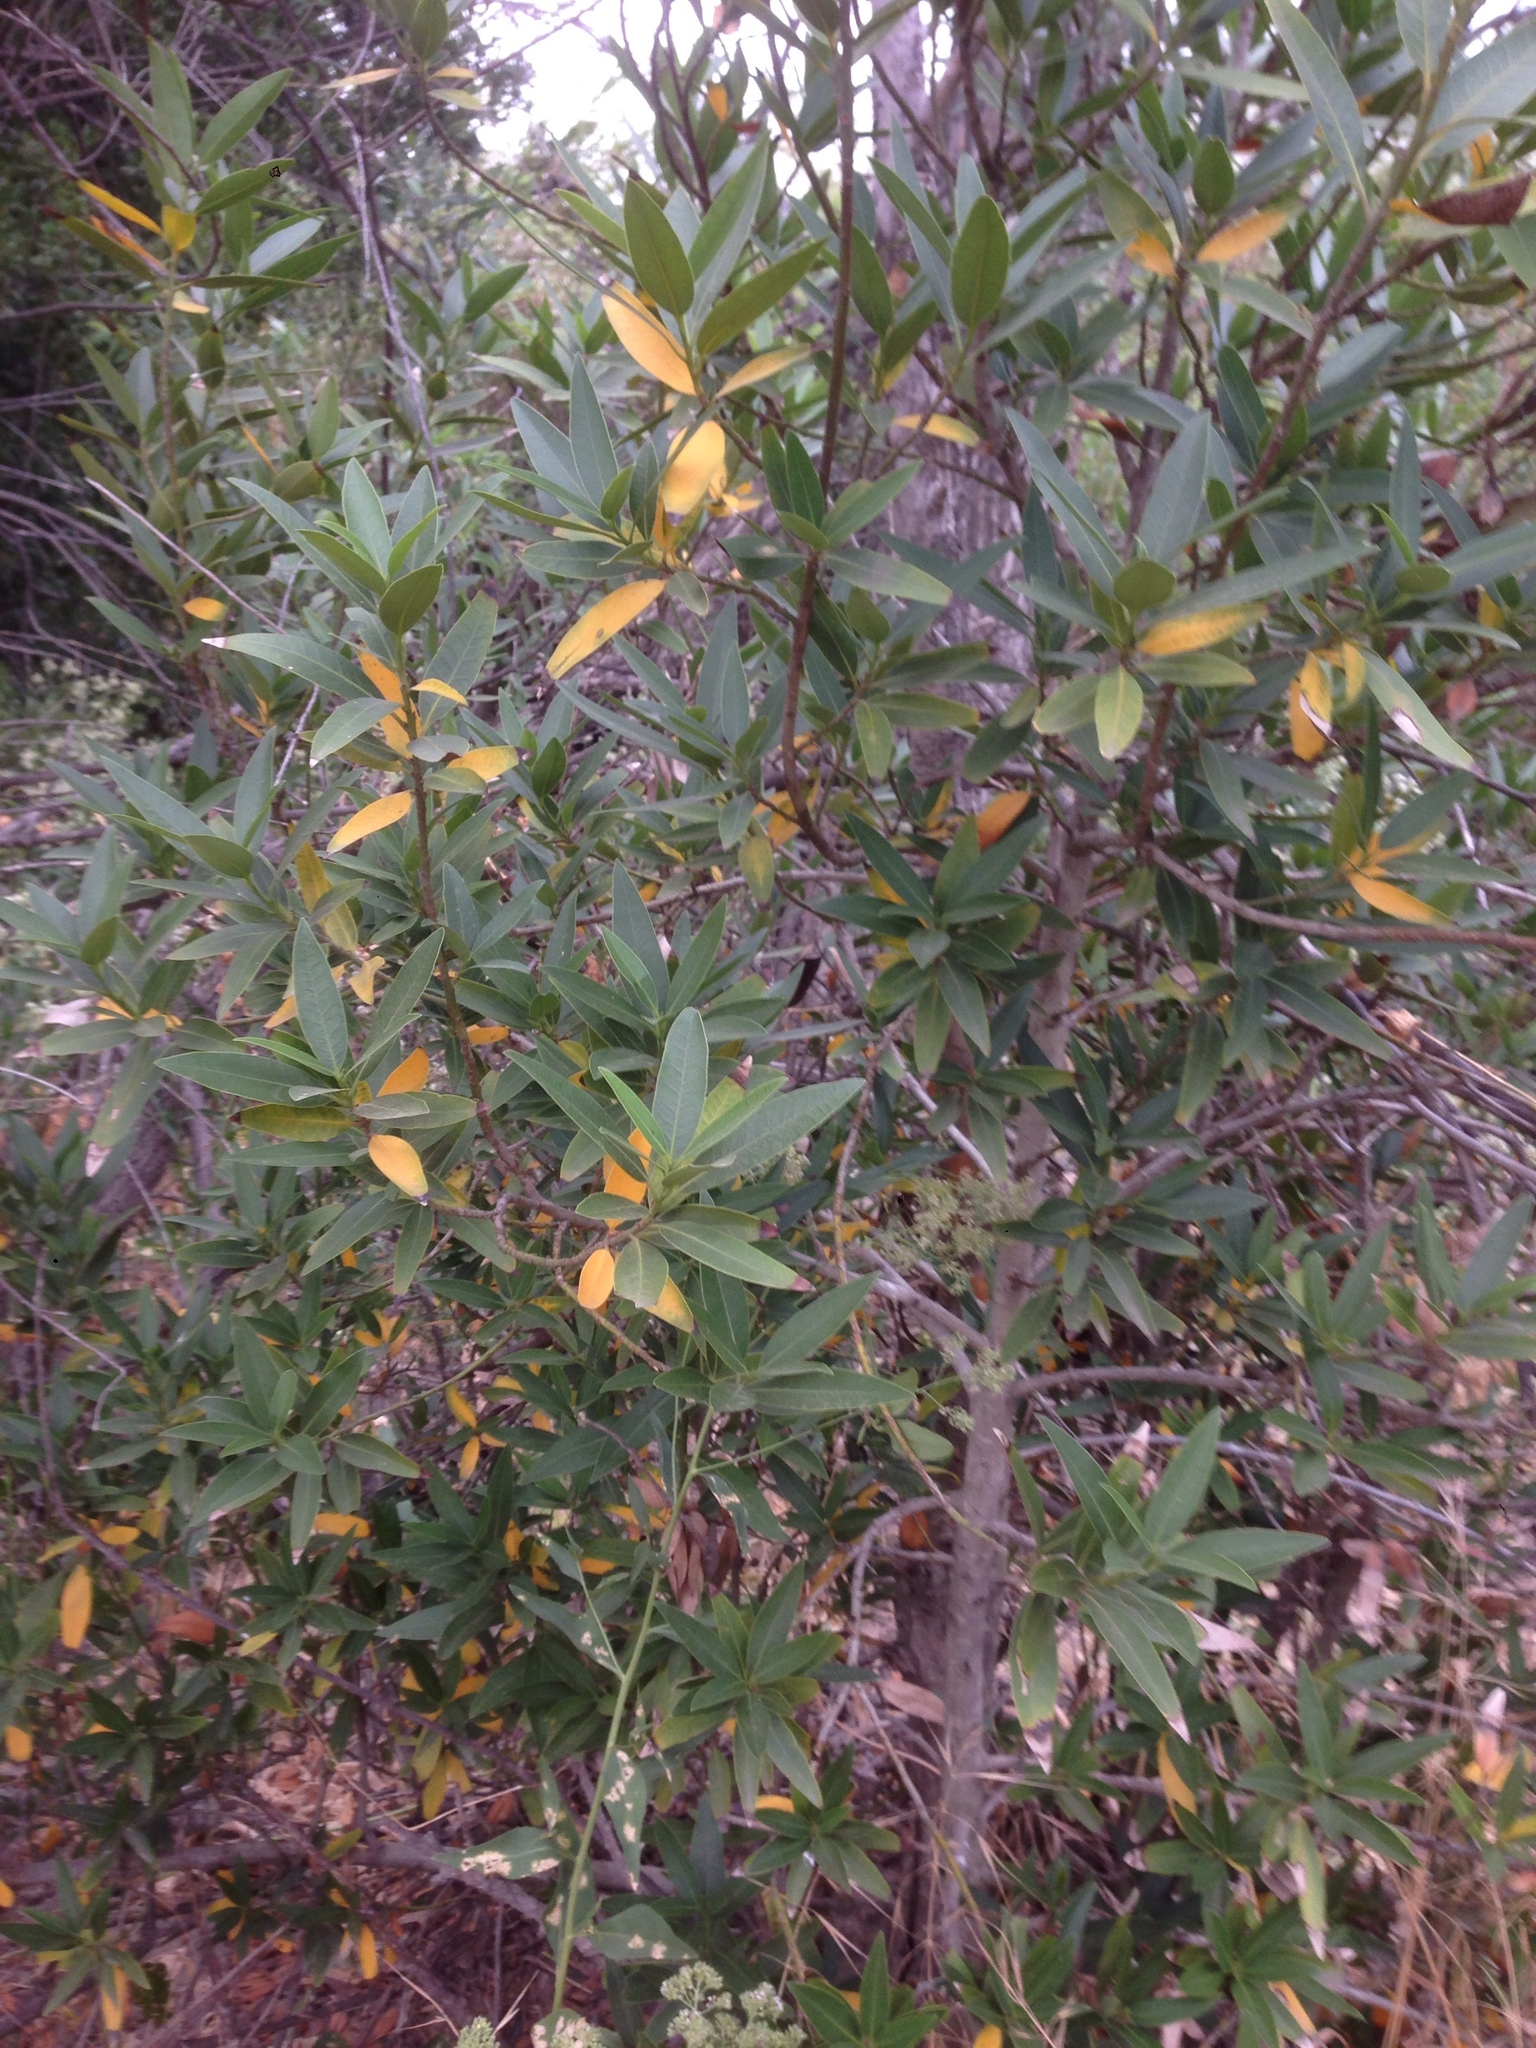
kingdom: Plantae
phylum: Tracheophyta
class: Magnoliopsida
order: Laurales
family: Lauraceae
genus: Umbellularia
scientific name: Umbellularia californica
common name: California bay
